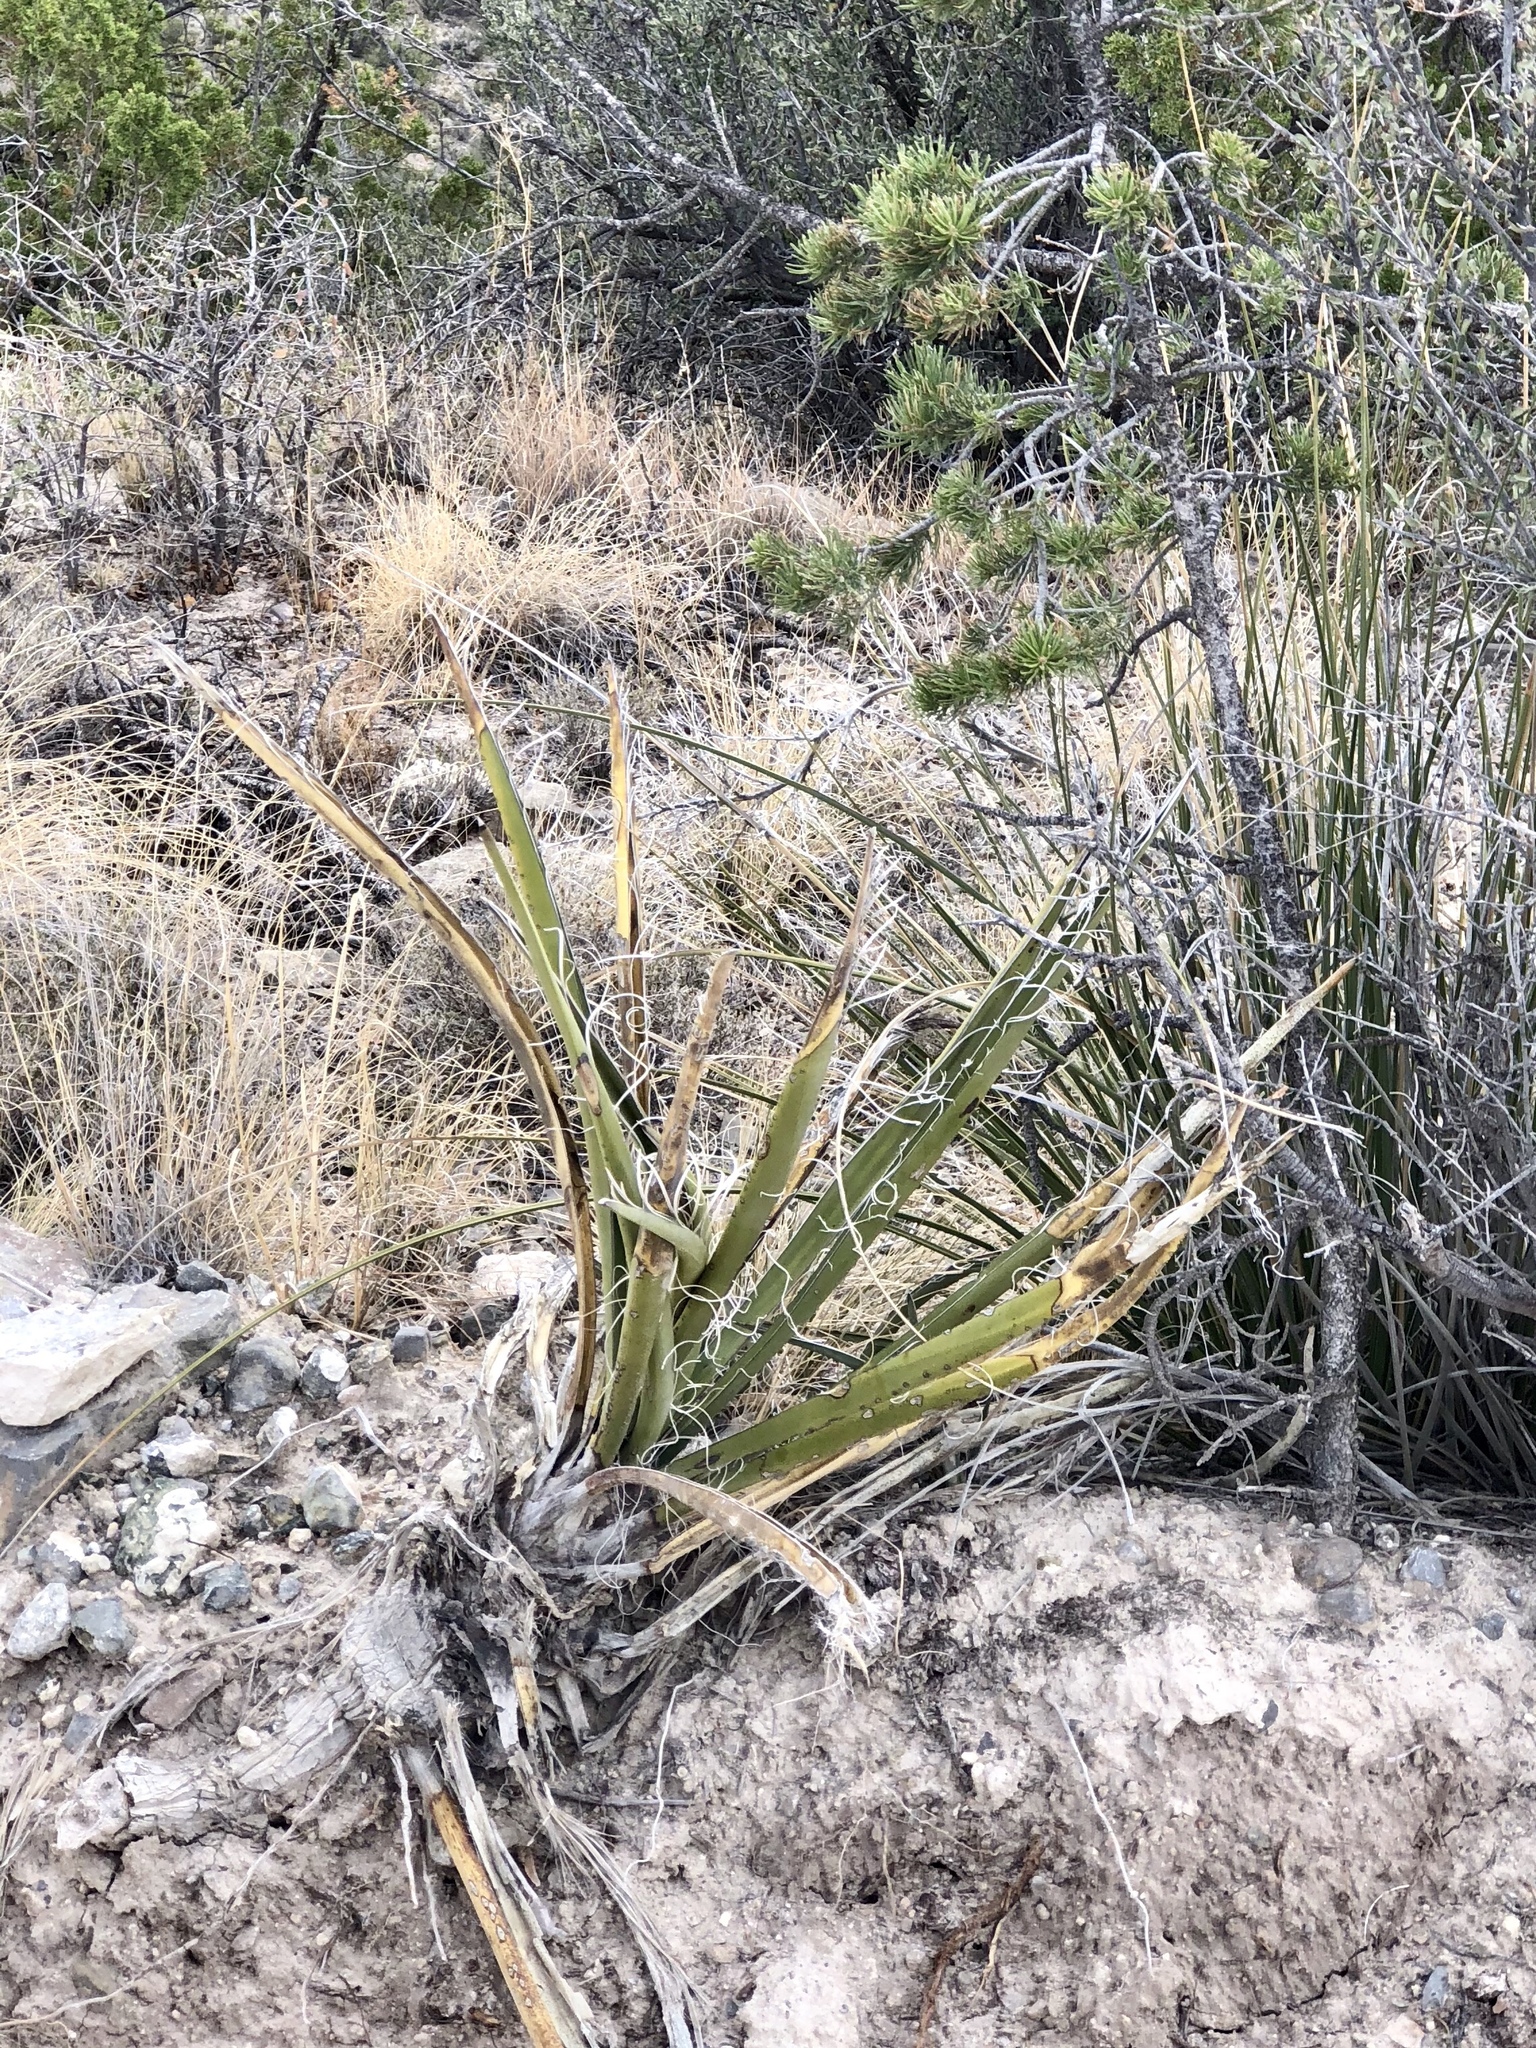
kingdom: Plantae
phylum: Tracheophyta
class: Liliopsida
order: Asparagales
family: Asparagaceae
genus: Yucca
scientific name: Yucca baccata
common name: Banana yucca
